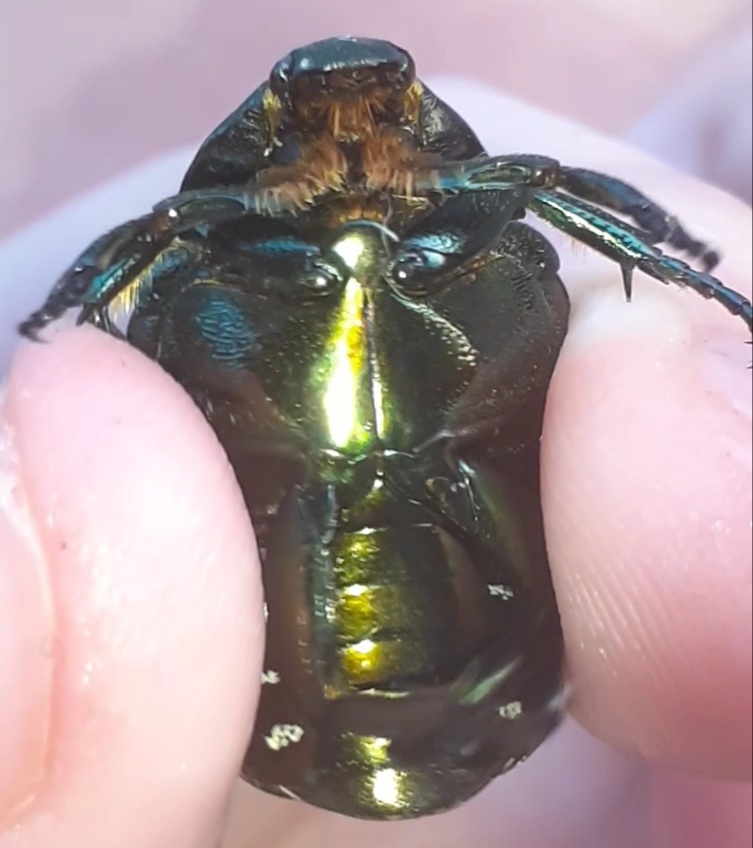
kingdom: Animalia
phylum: Arthropoda
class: Insecta
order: Coleoptera
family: Scarabaeidae
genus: Protaetia
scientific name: Protaetia cuprea
